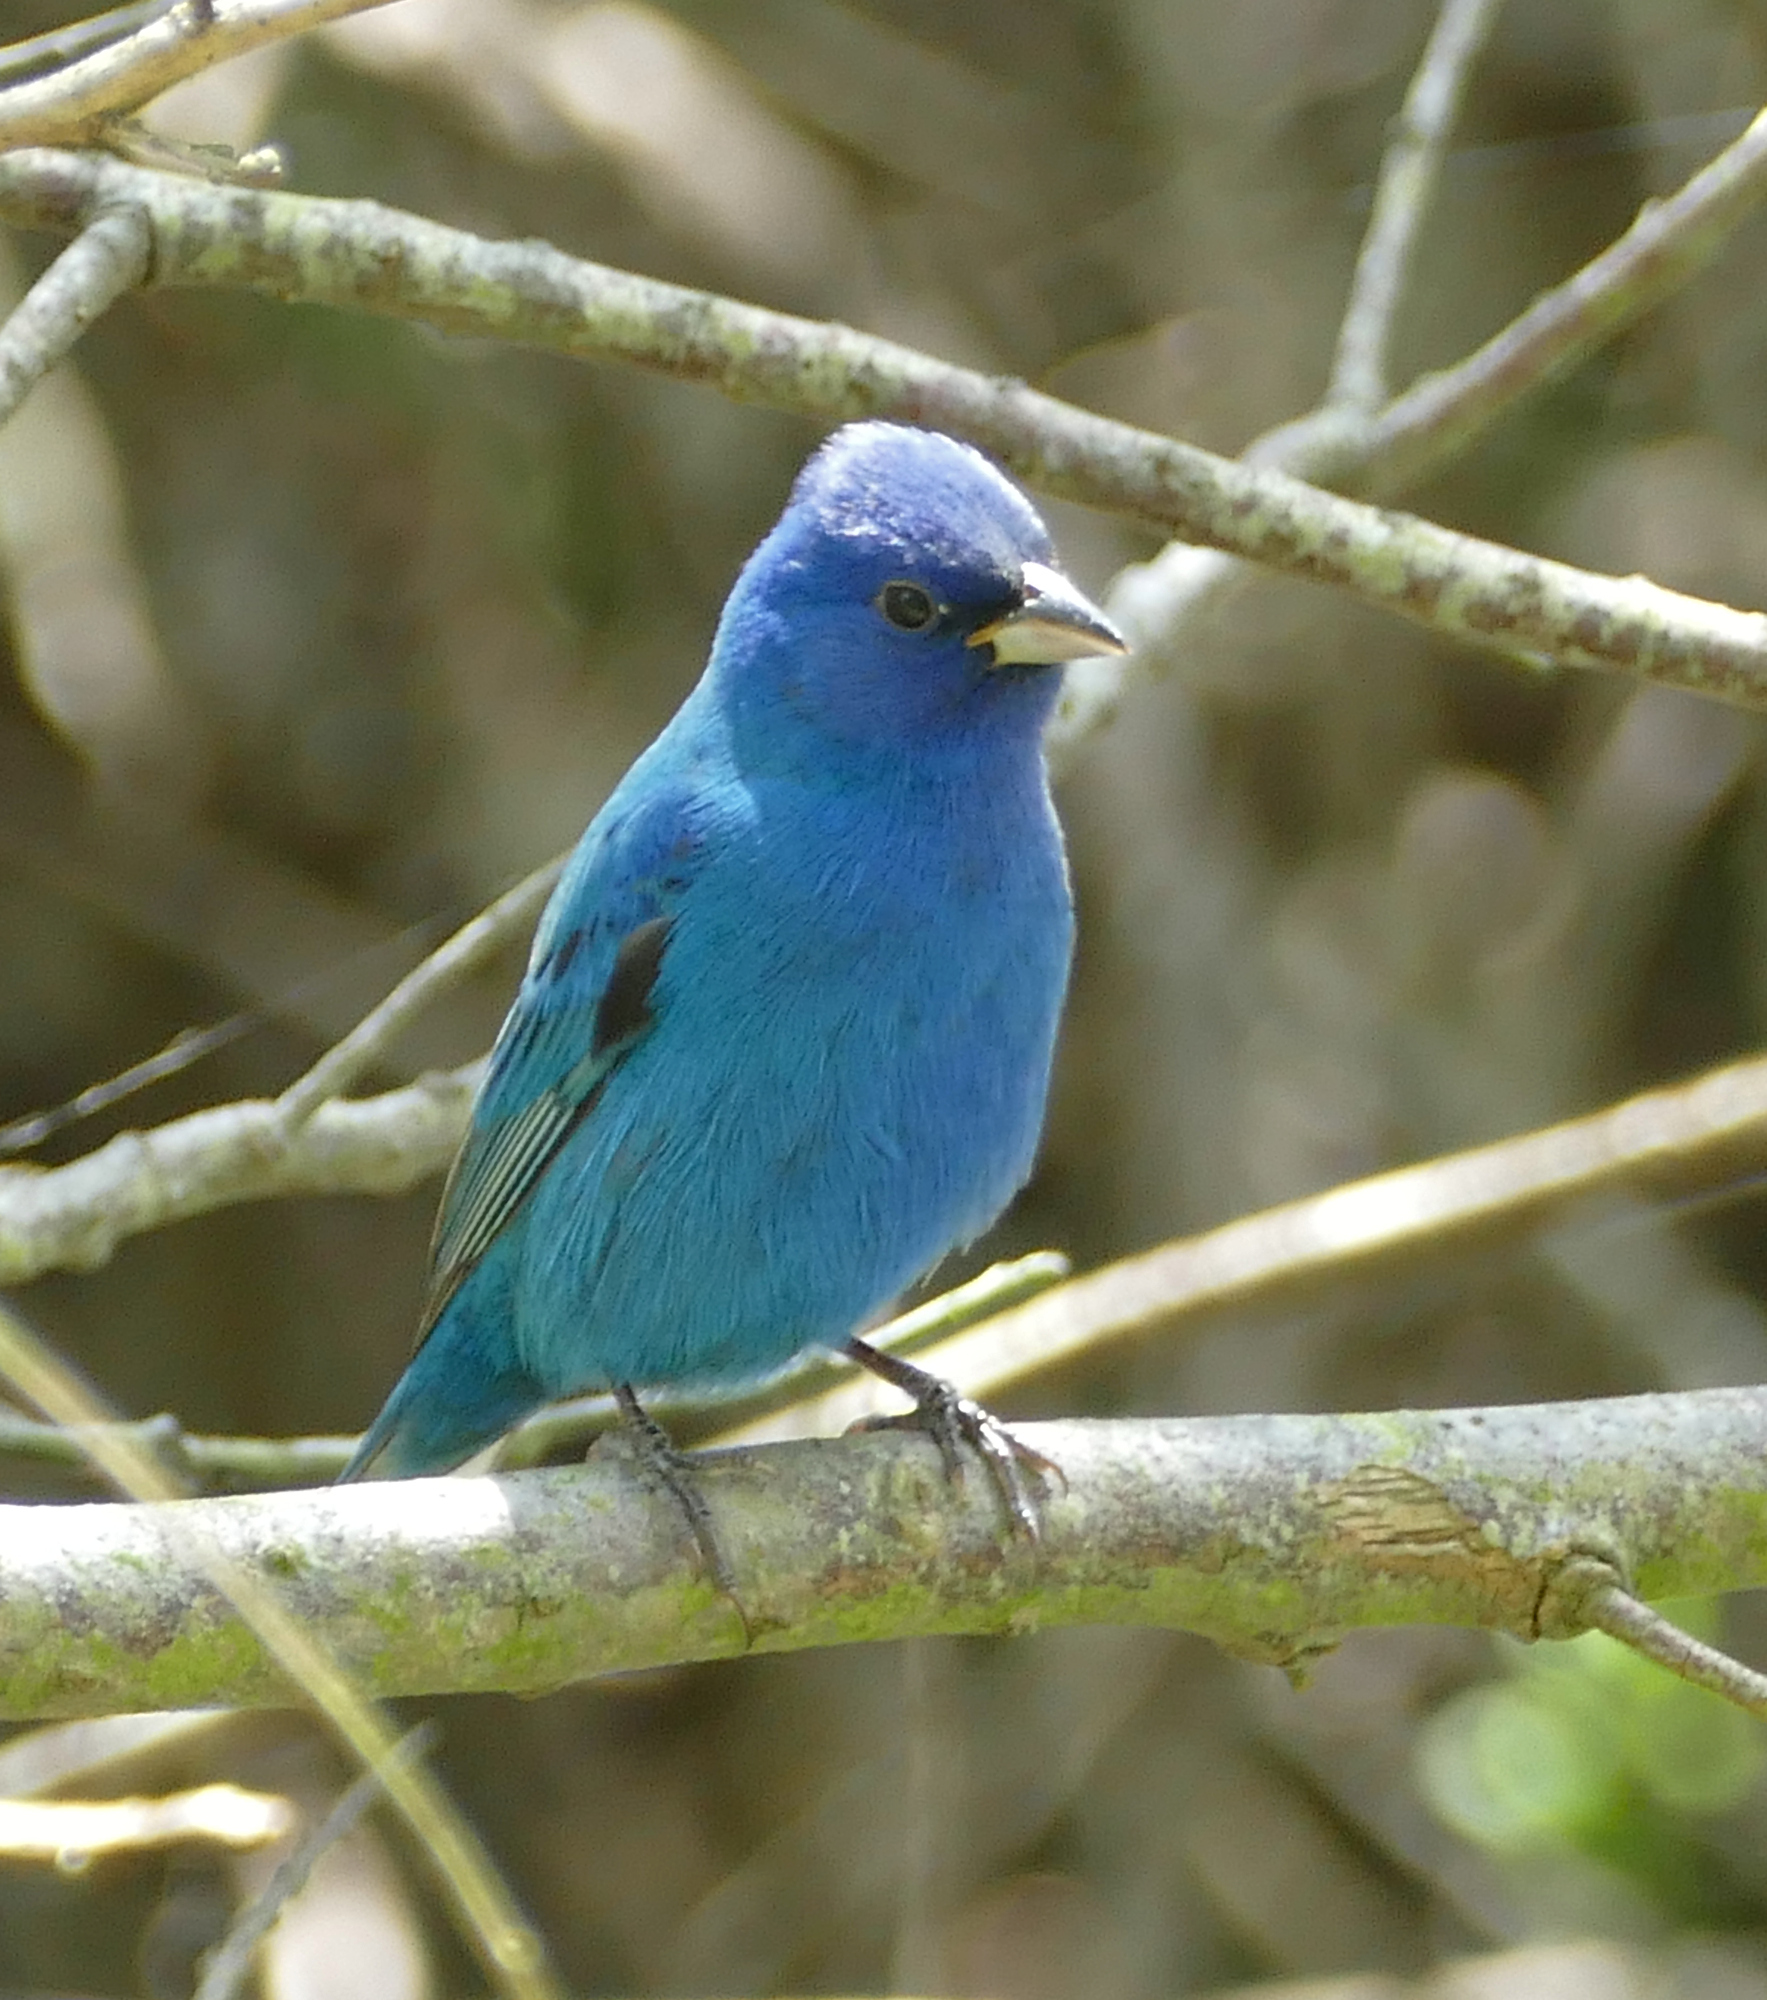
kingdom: Animalia
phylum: Chordata
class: Aves
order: Passeriformes
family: Cardinalidae
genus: Passerina
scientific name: Passerina cyanea
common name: Indigo bunting
